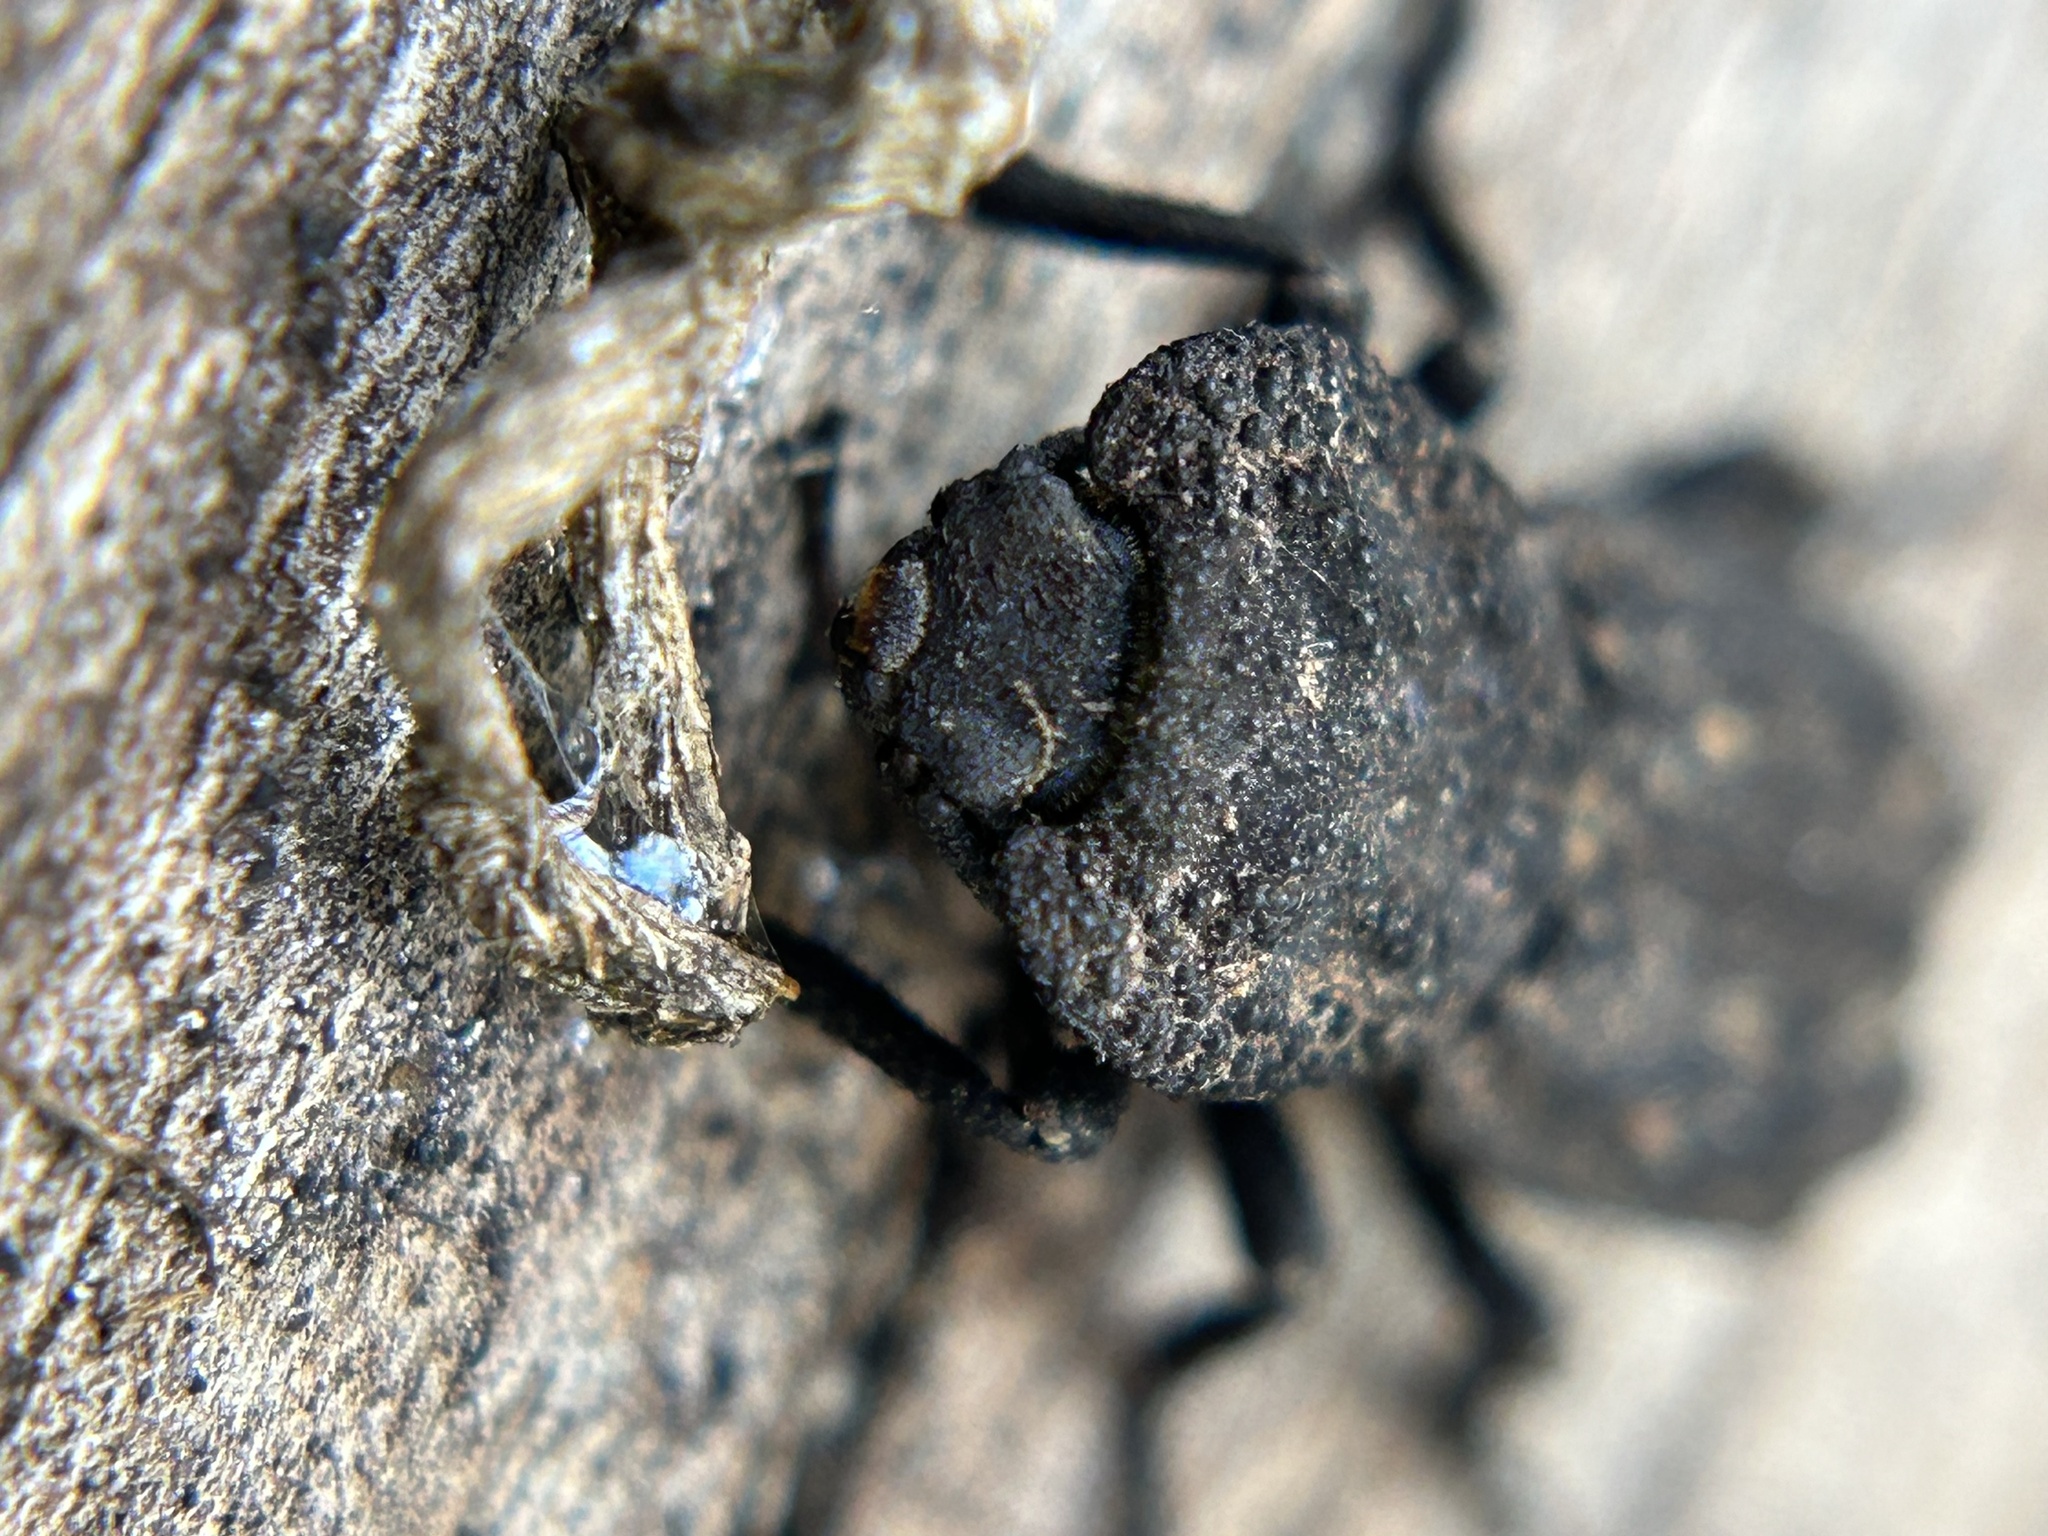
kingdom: Animalia
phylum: Arthropoda
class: Insecta
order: Coleoptera
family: Zopheridae
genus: Phloeodes
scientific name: Phloeodes plicatus
